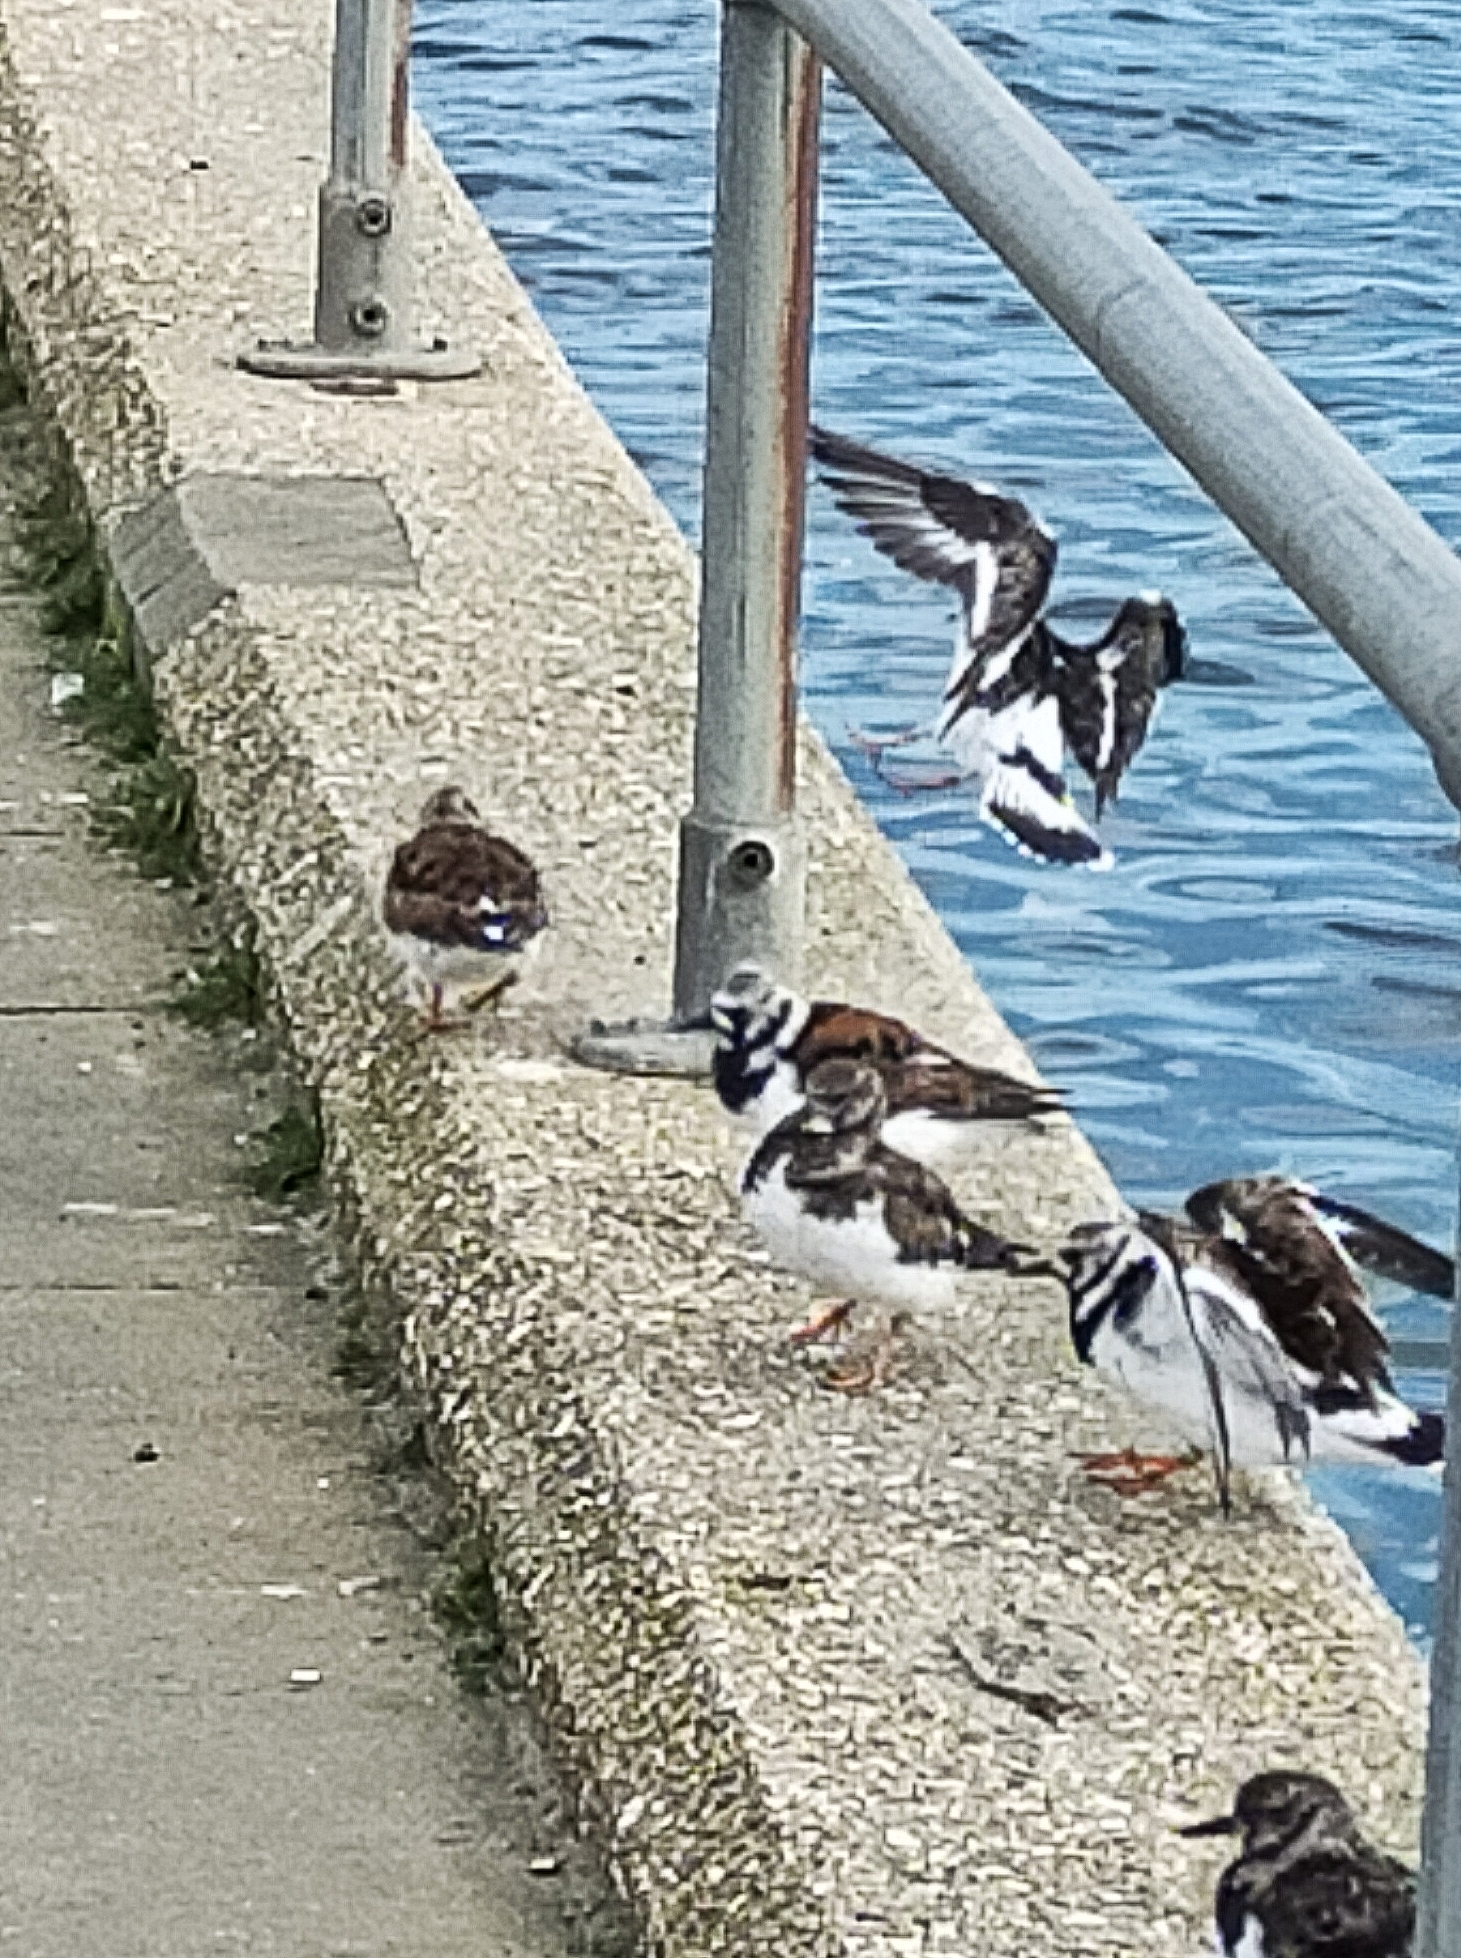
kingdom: Animalia
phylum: Chordata
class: Aves
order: Charadriiformes
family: Scolopacidae
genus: Arenaria
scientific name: Arenaria interpres
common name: Ruddy turnstone
